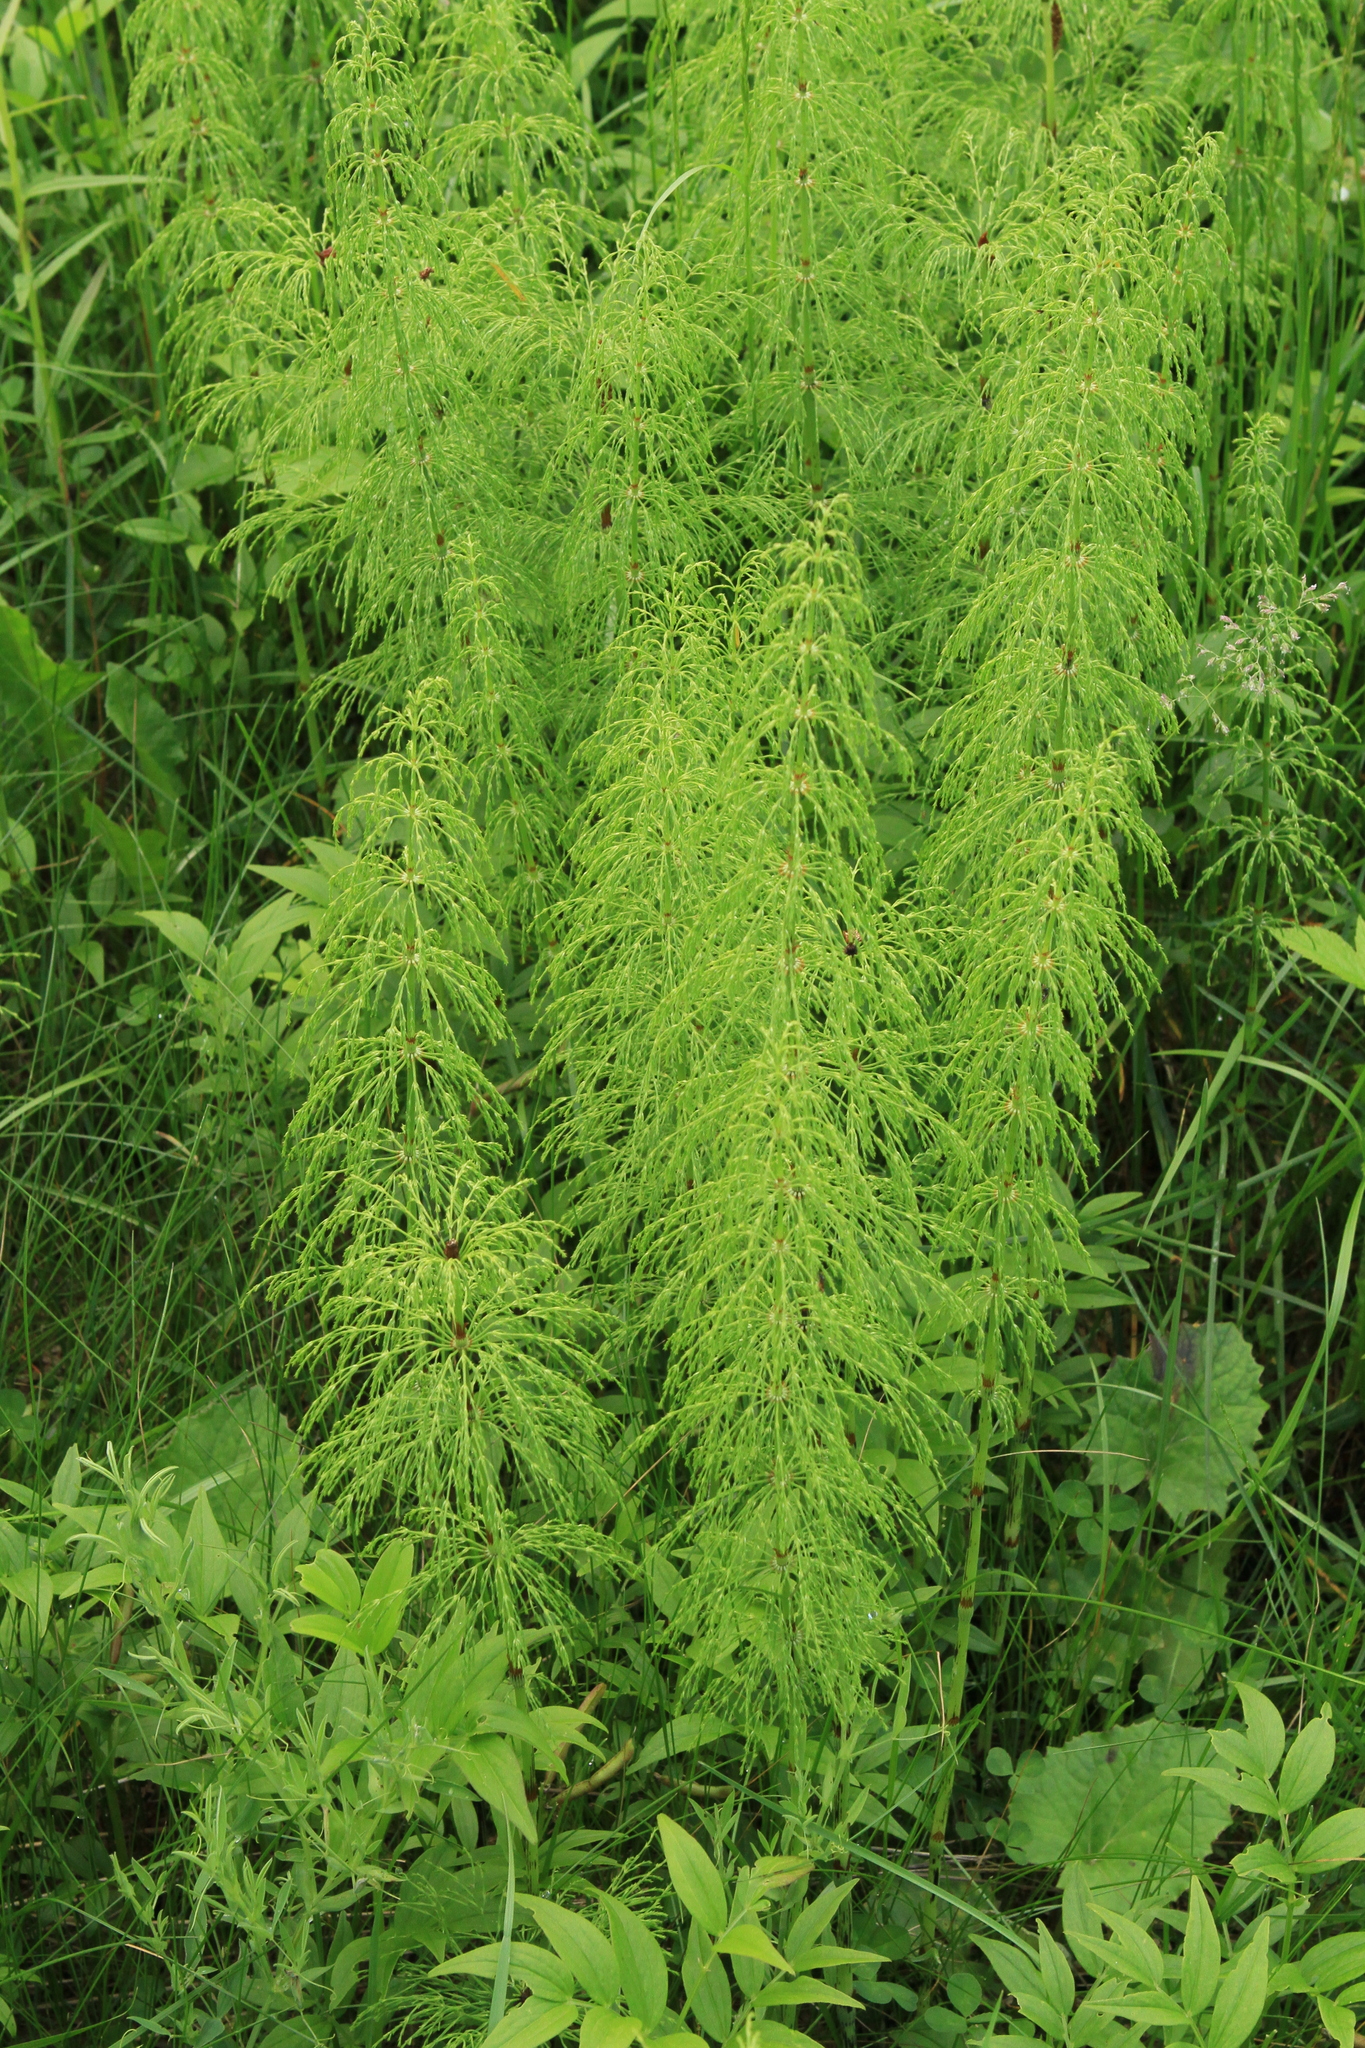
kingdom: Plantae
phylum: Tracheophyta
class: Polypodiopsida
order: Equisetales
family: Equisetaceae
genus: Equisetum
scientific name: Equisetum sylvaticum
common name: Wood horsetail
